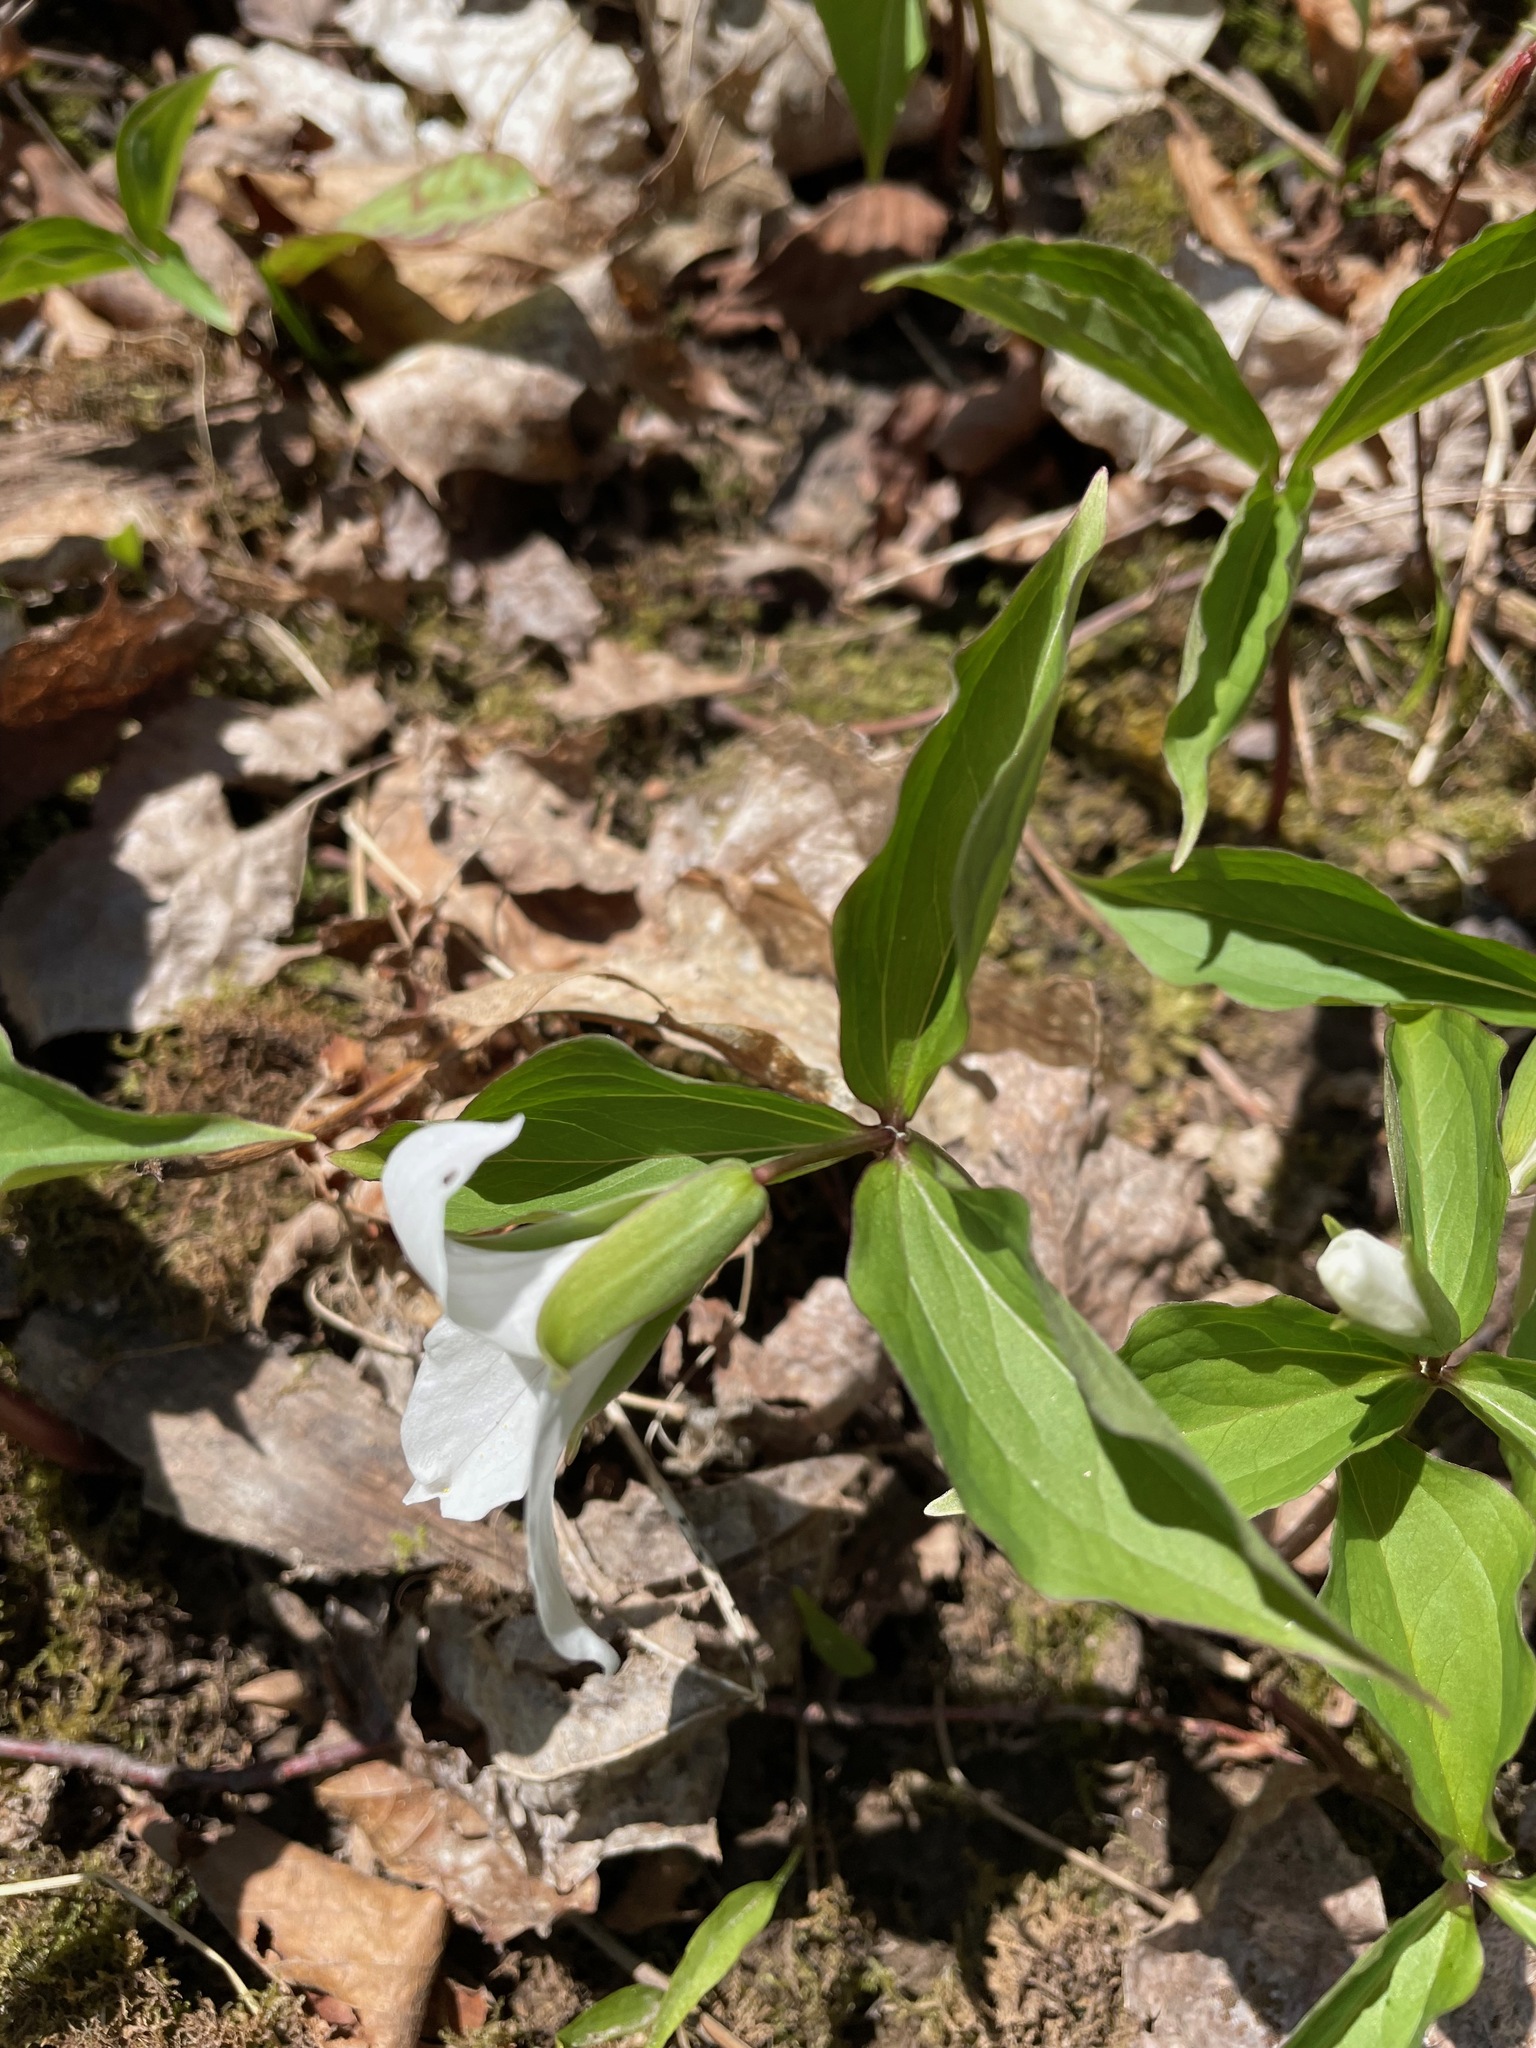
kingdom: Plantae
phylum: Tracheophyta
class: Liliopsida
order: Liliales
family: Melanthiaceae
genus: Trillium
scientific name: Trillium grandiflorum
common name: Great white trillium
